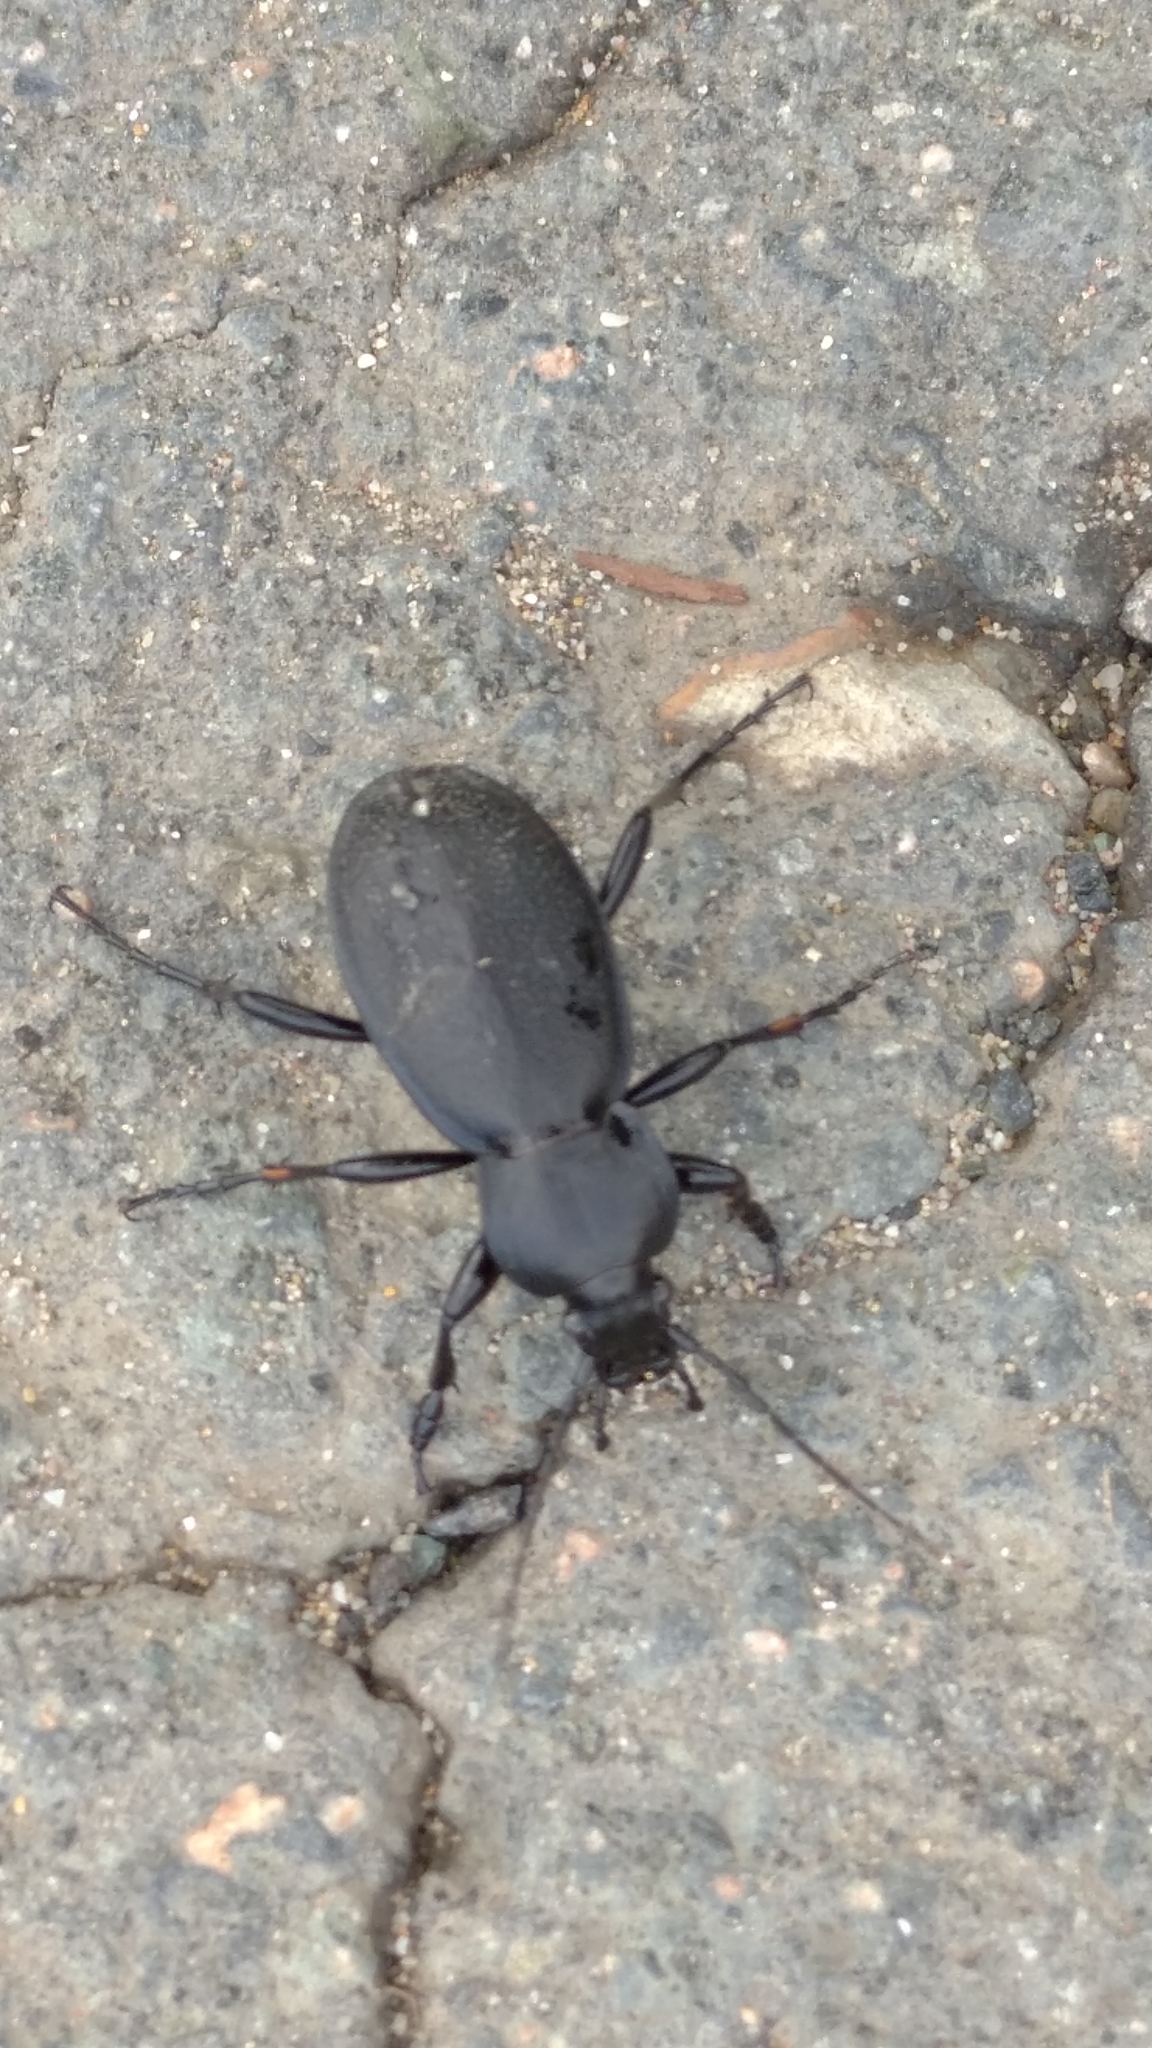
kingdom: Animalia
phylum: Arthropoda
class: Insecta
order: Coleoptera
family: Carabidae
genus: Carabus
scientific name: Carabus coriaceus
